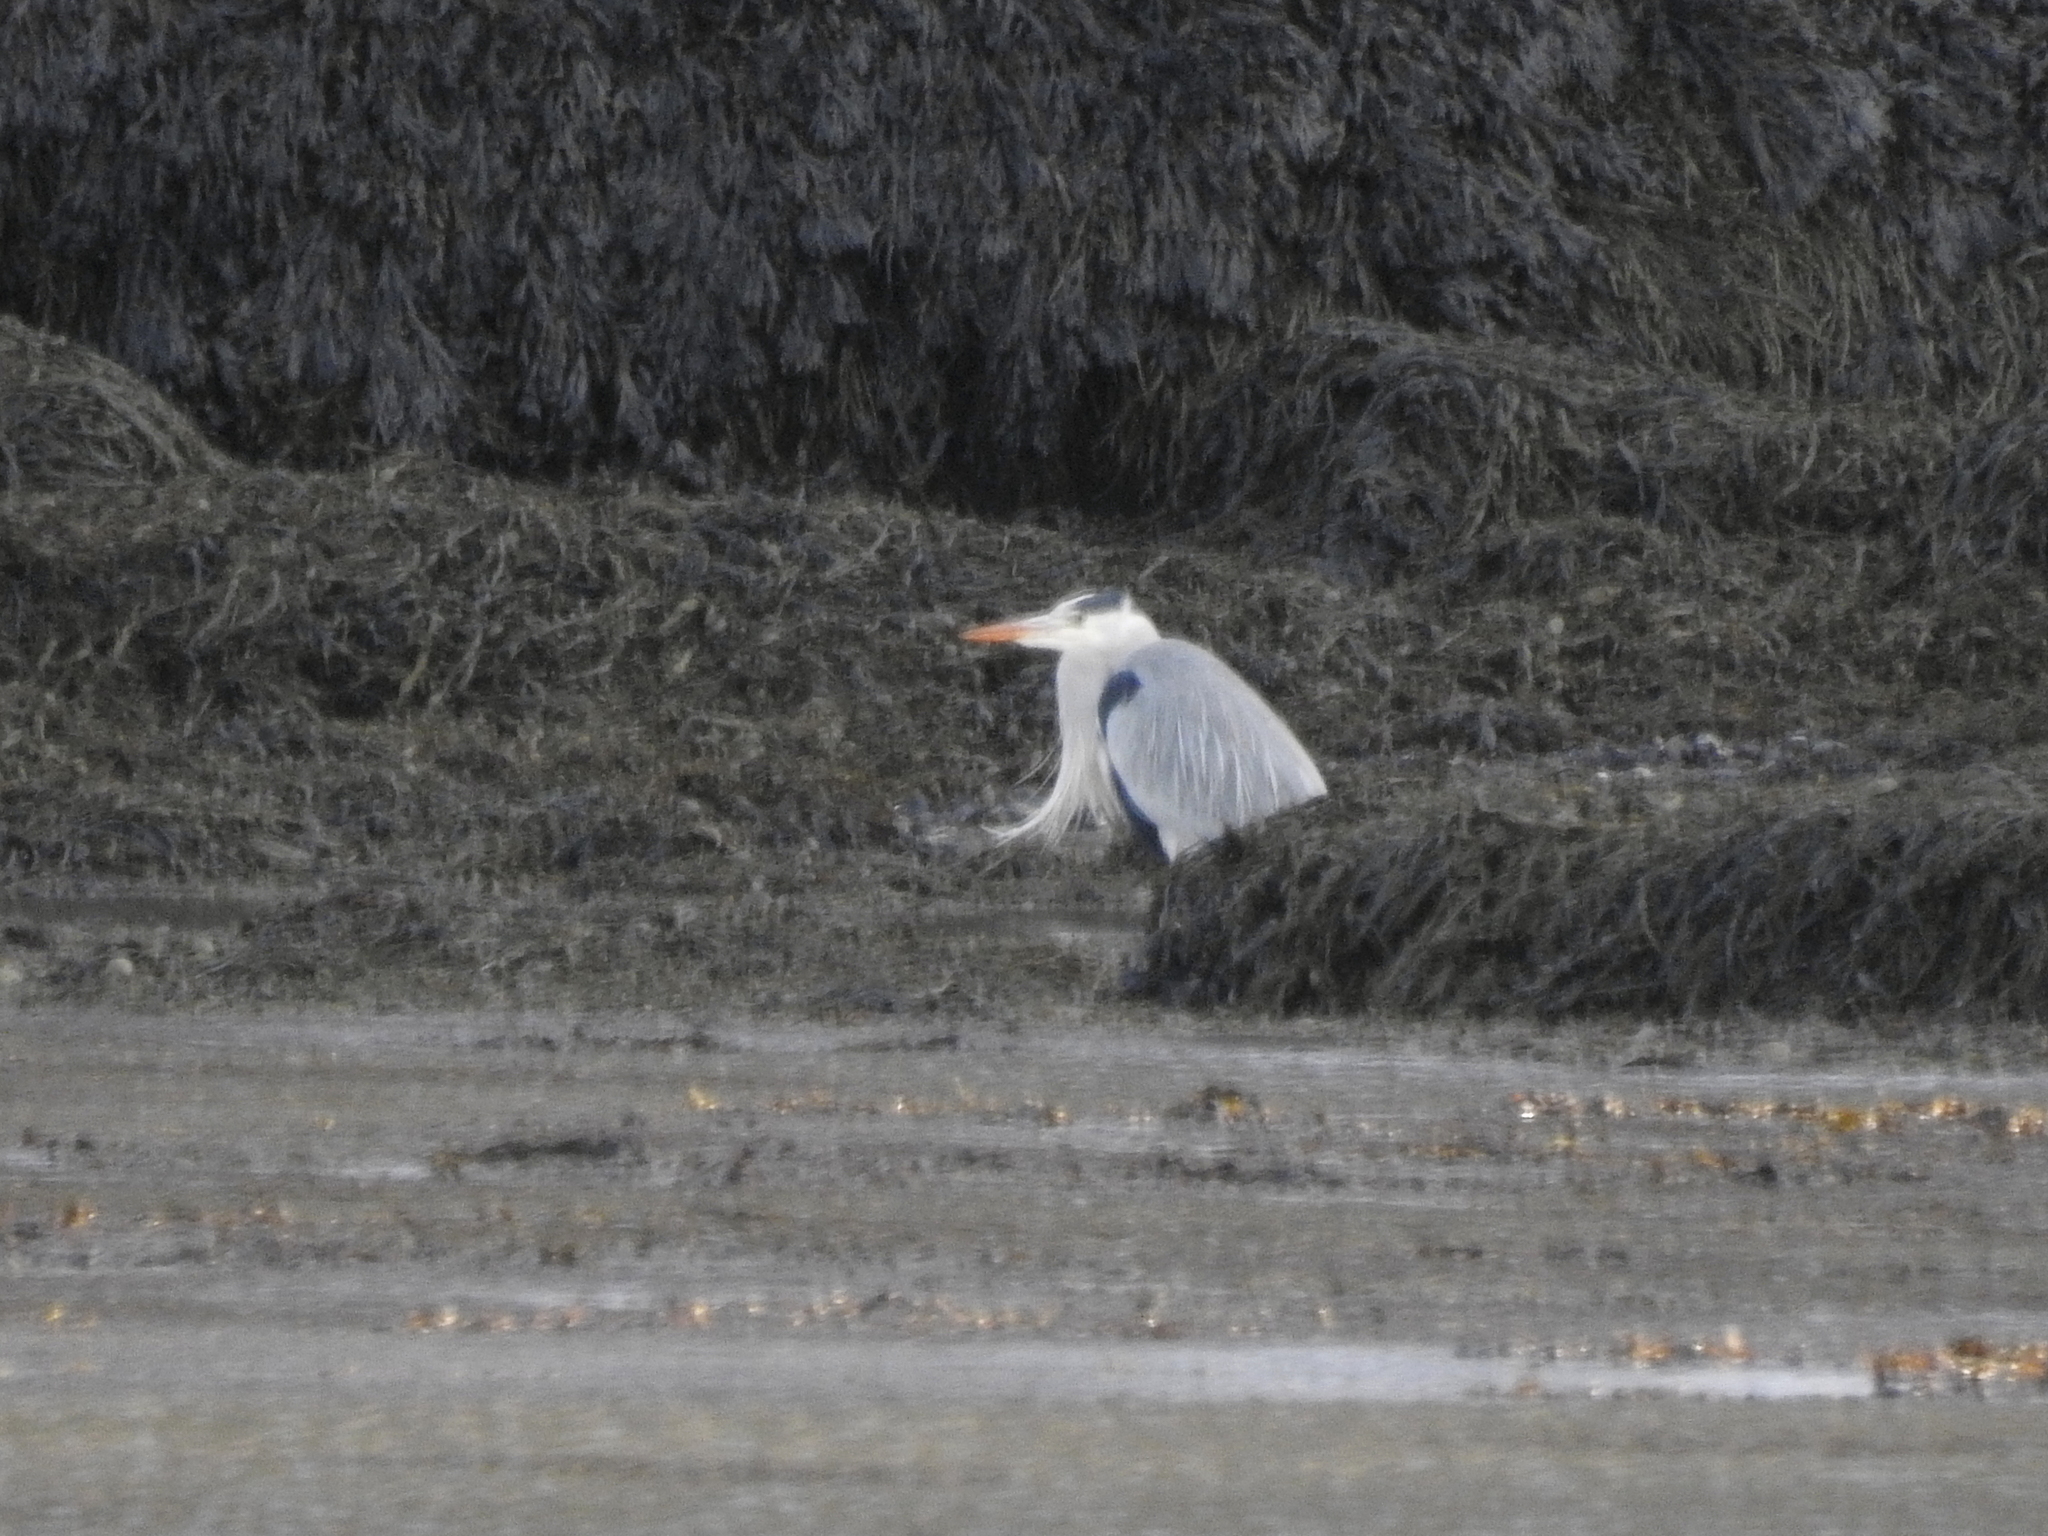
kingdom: Animalia
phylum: Chordata
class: Aves
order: Pelecaniformes
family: Ardeidae
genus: Ardea
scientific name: Ardea cinerea
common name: Grey heron
